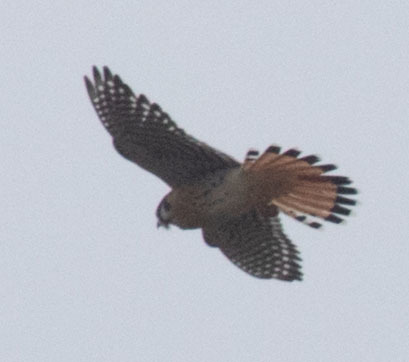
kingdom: Animalia
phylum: Chordata
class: Aves
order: Falconiformes
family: Falconidae
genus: Falco
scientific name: Falco sparverius
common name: American kestrel
